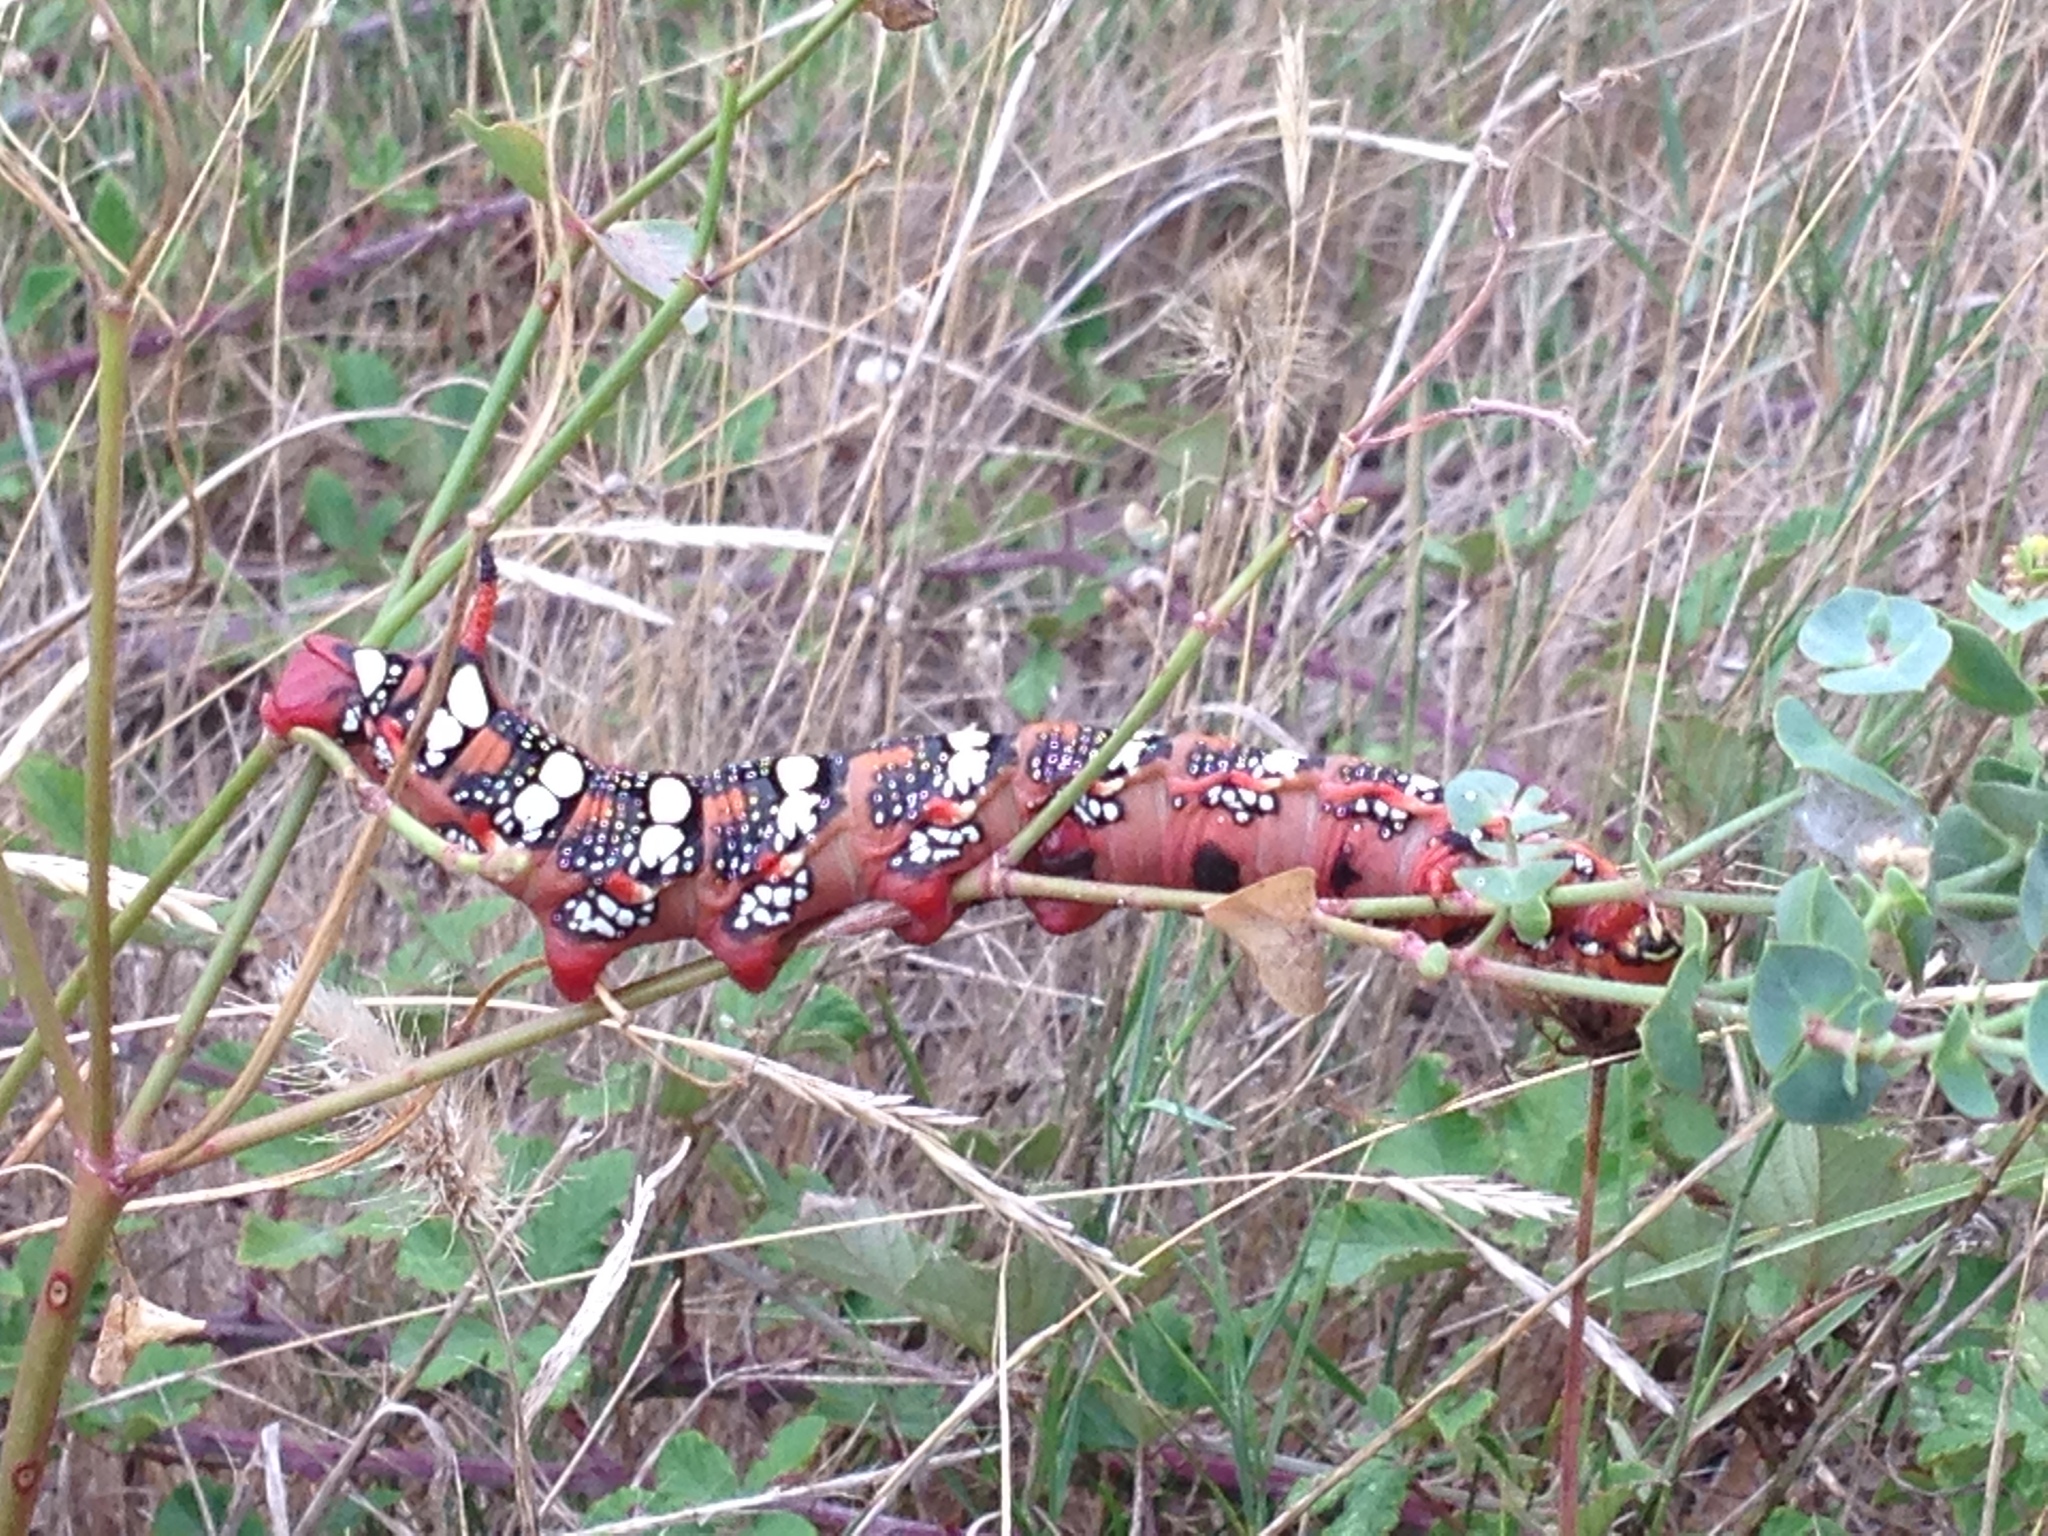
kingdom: Animalia
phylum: Arthropoda
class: Insecta
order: Lepidoptera
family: Sphingidae
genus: Hyles
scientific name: Hyles euphorbiae
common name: Spurge hawk-moth
